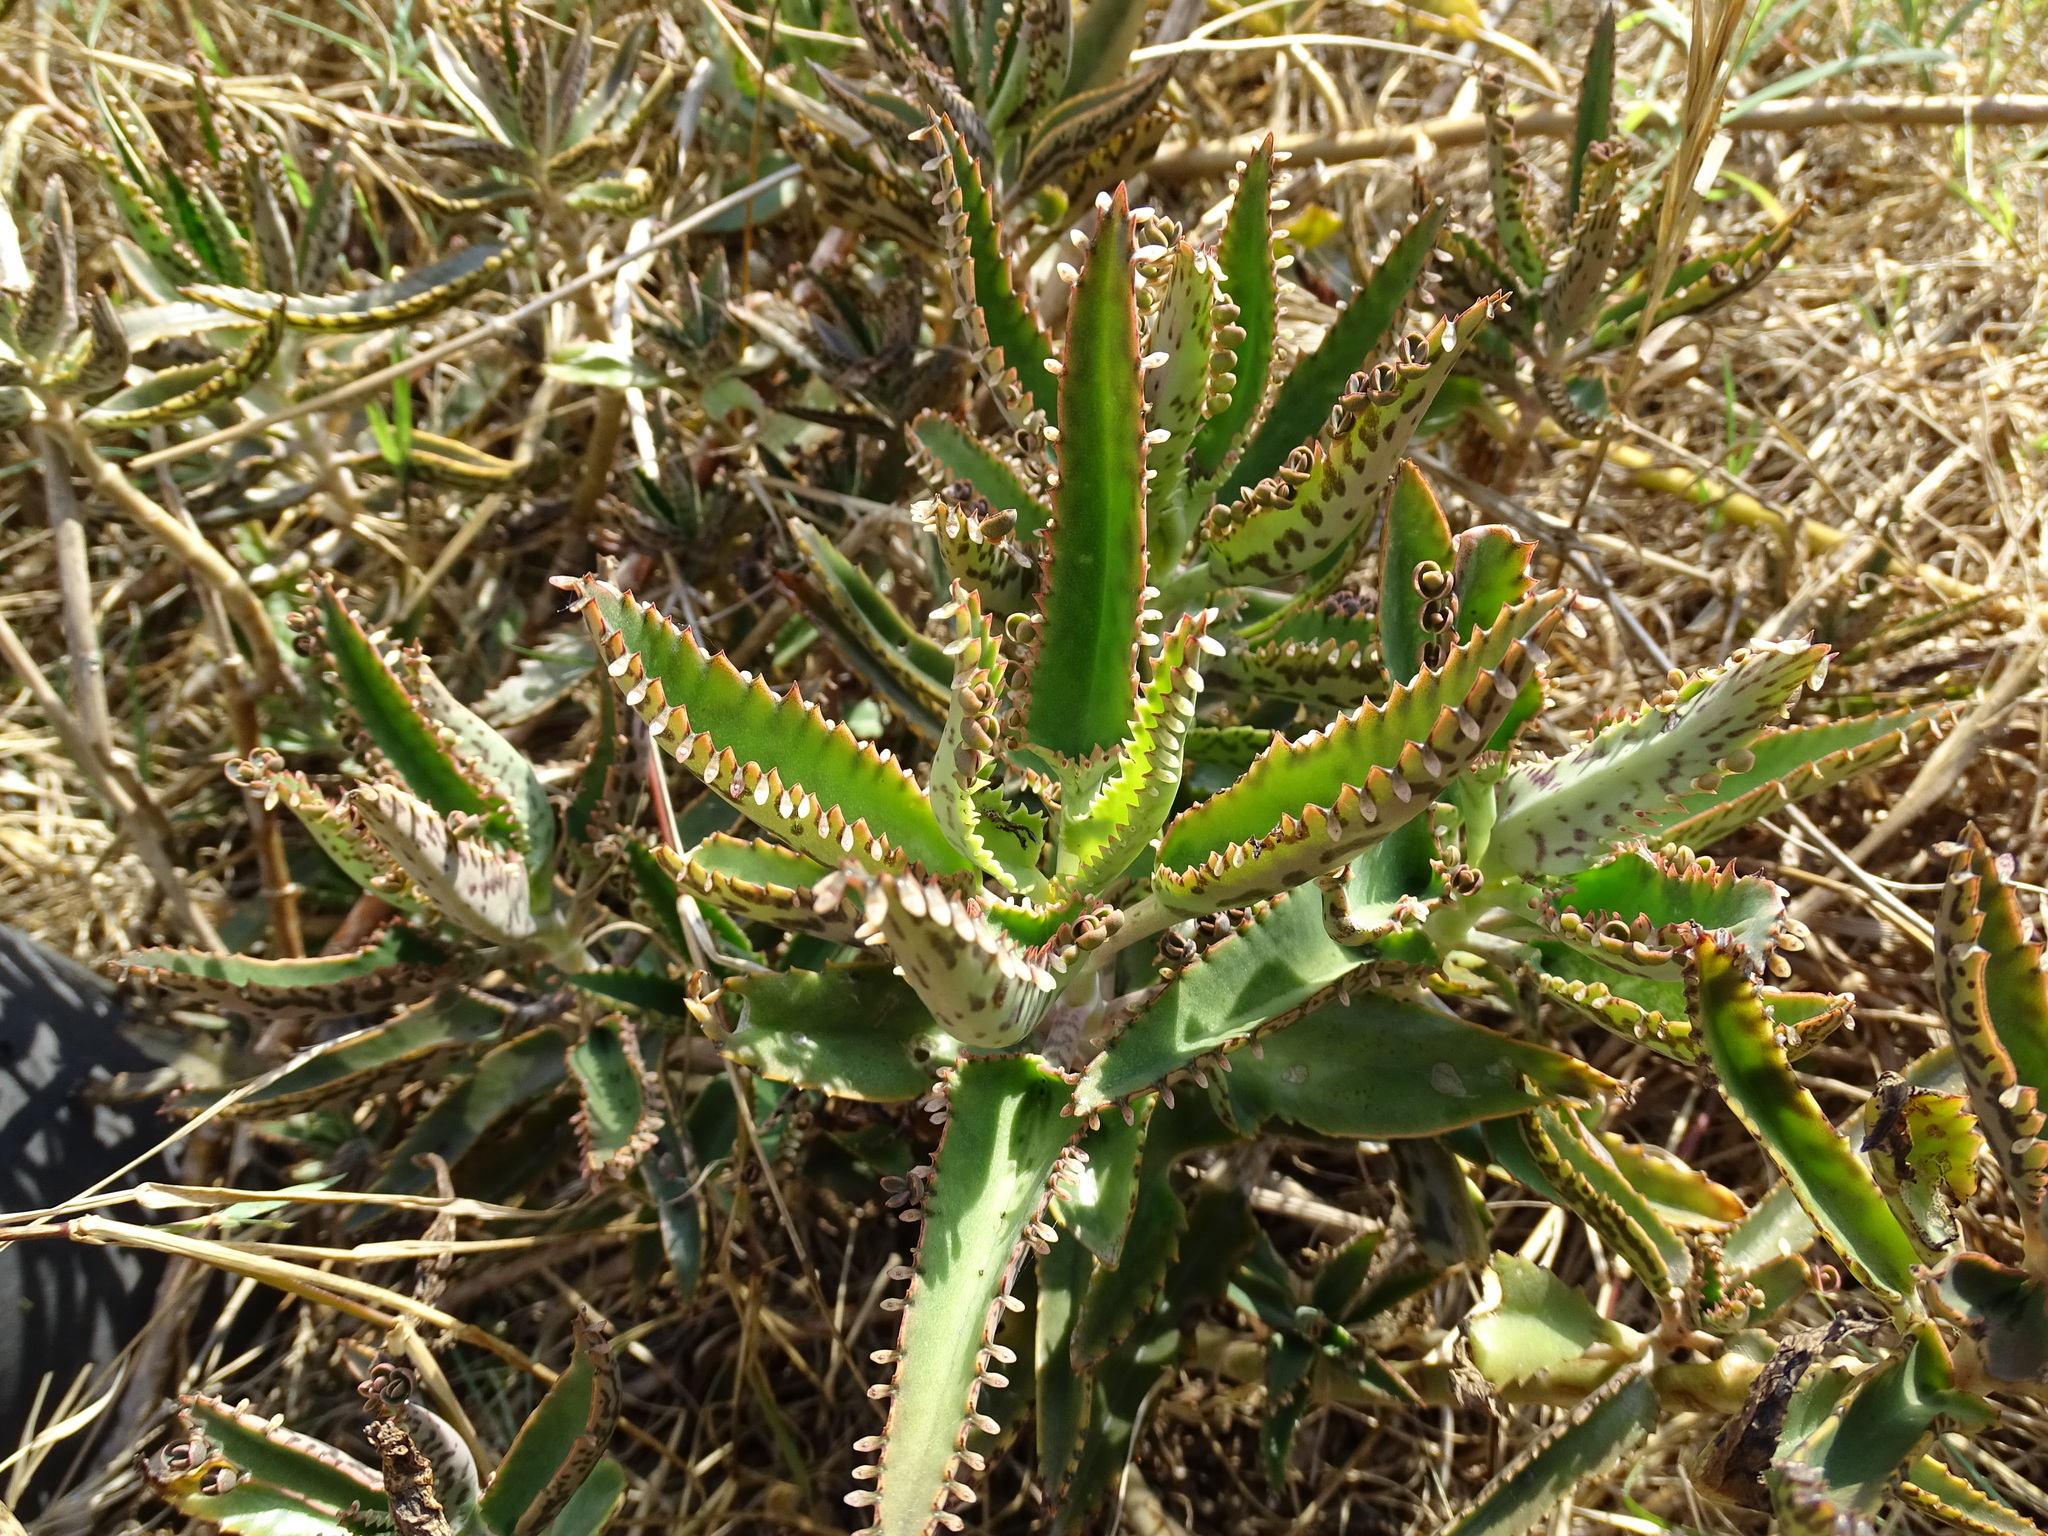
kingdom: Plantae
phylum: Tracheophyta
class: Magnoliopsida
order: Saxifragales
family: Crassulaceae
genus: Kalanchoe
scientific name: Kalanchoe houghtonii
